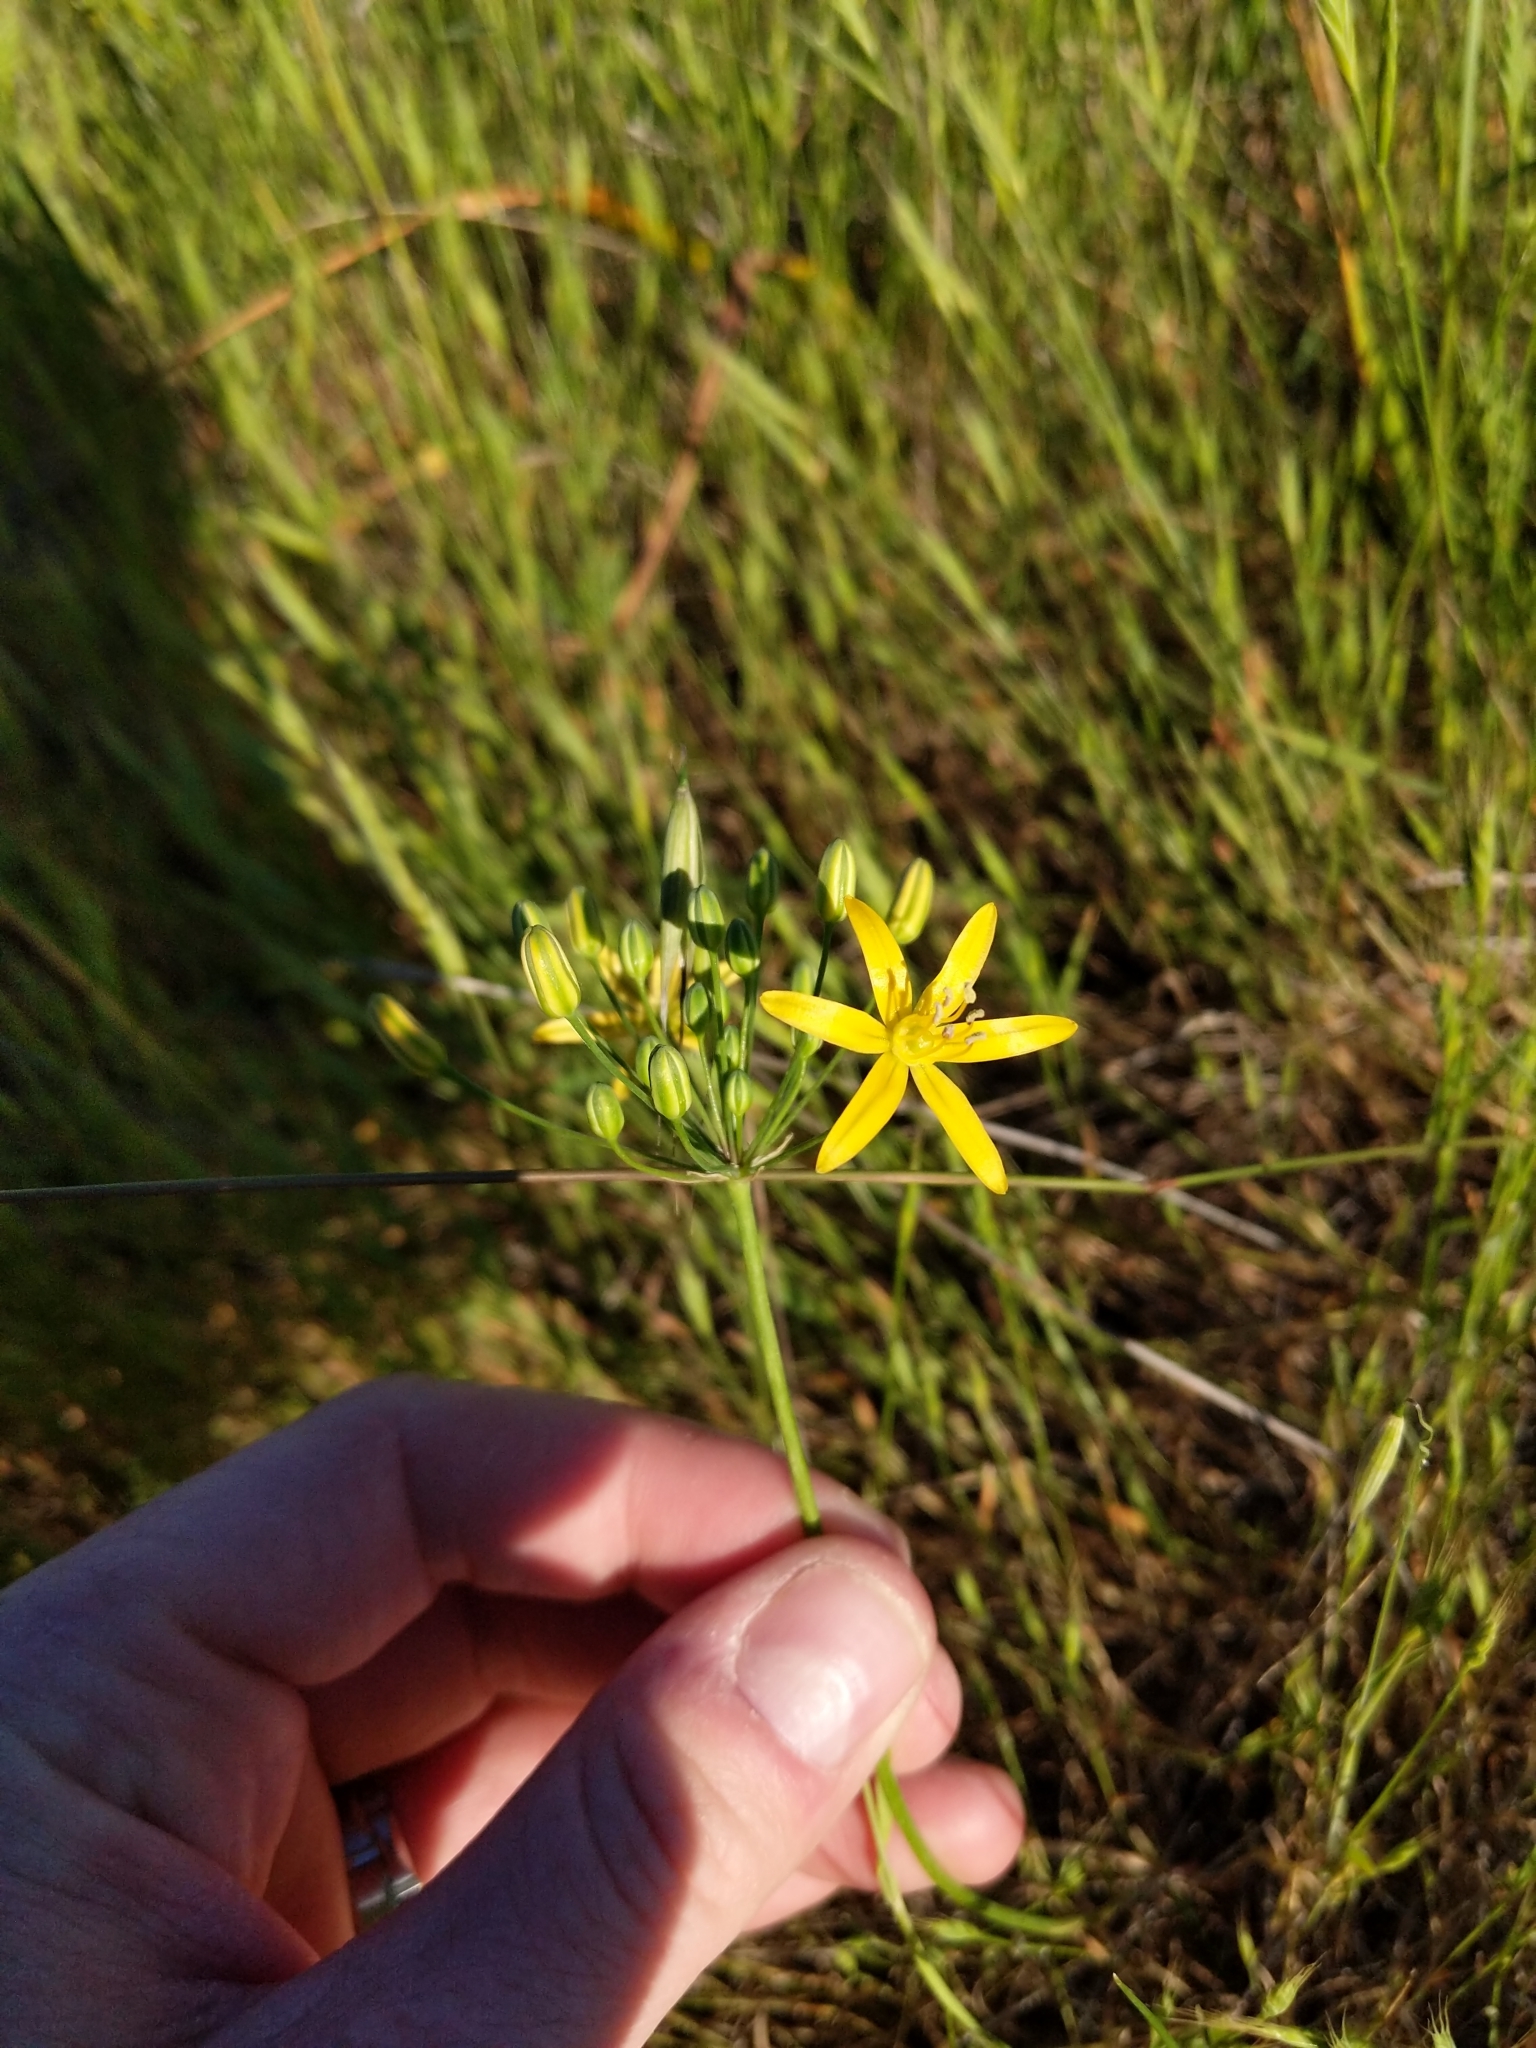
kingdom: Plantae
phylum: Tracheophyta
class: Liliopsida
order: Asparagales
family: Asparagaceae
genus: Bloomeria
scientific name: Bloomeria crocea
